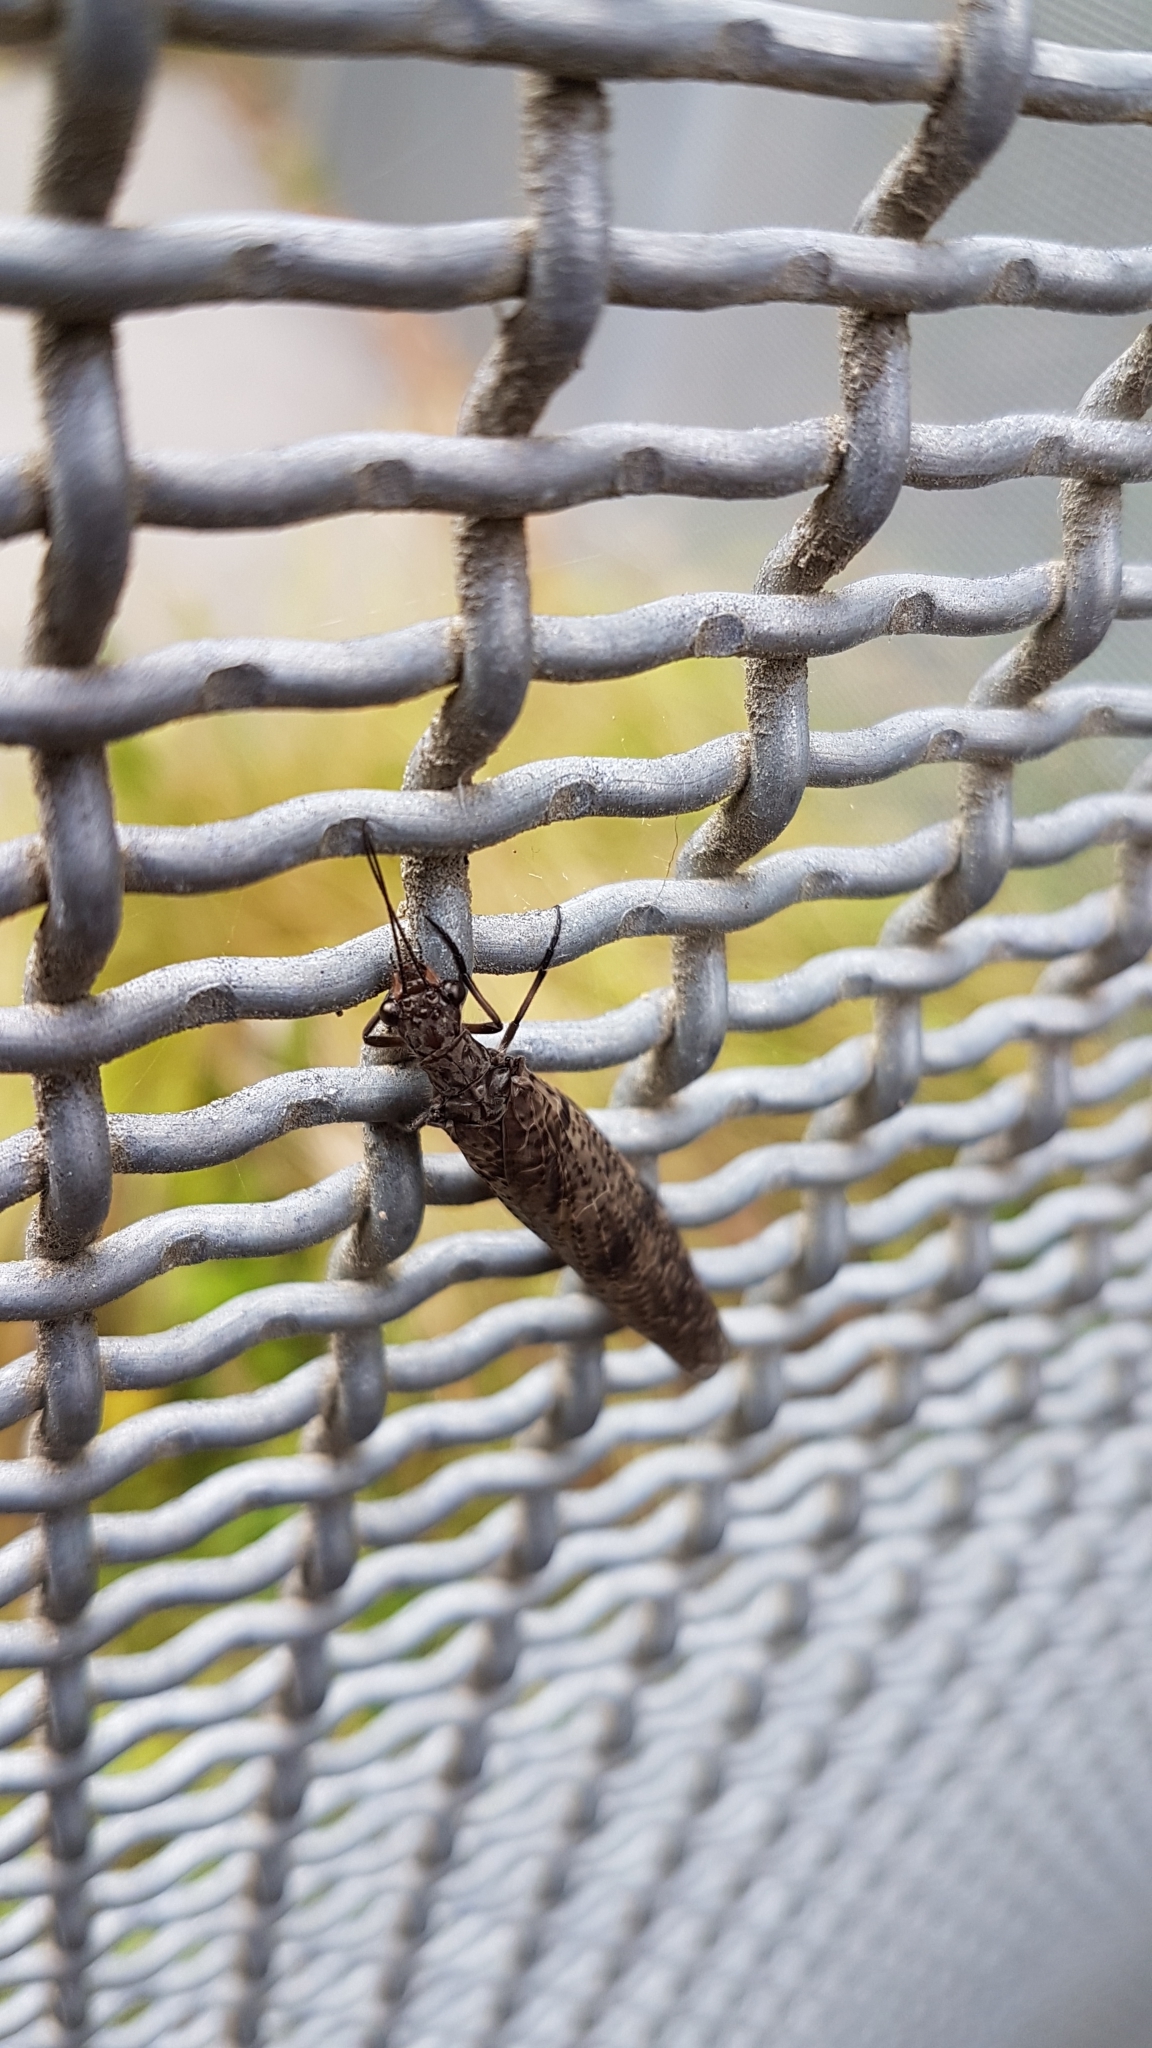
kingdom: Animalia
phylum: Arthropoda
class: Insecta
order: Megaloptera
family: Corydalidae
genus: Archichauliodes
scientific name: Archichauliodes diversus
